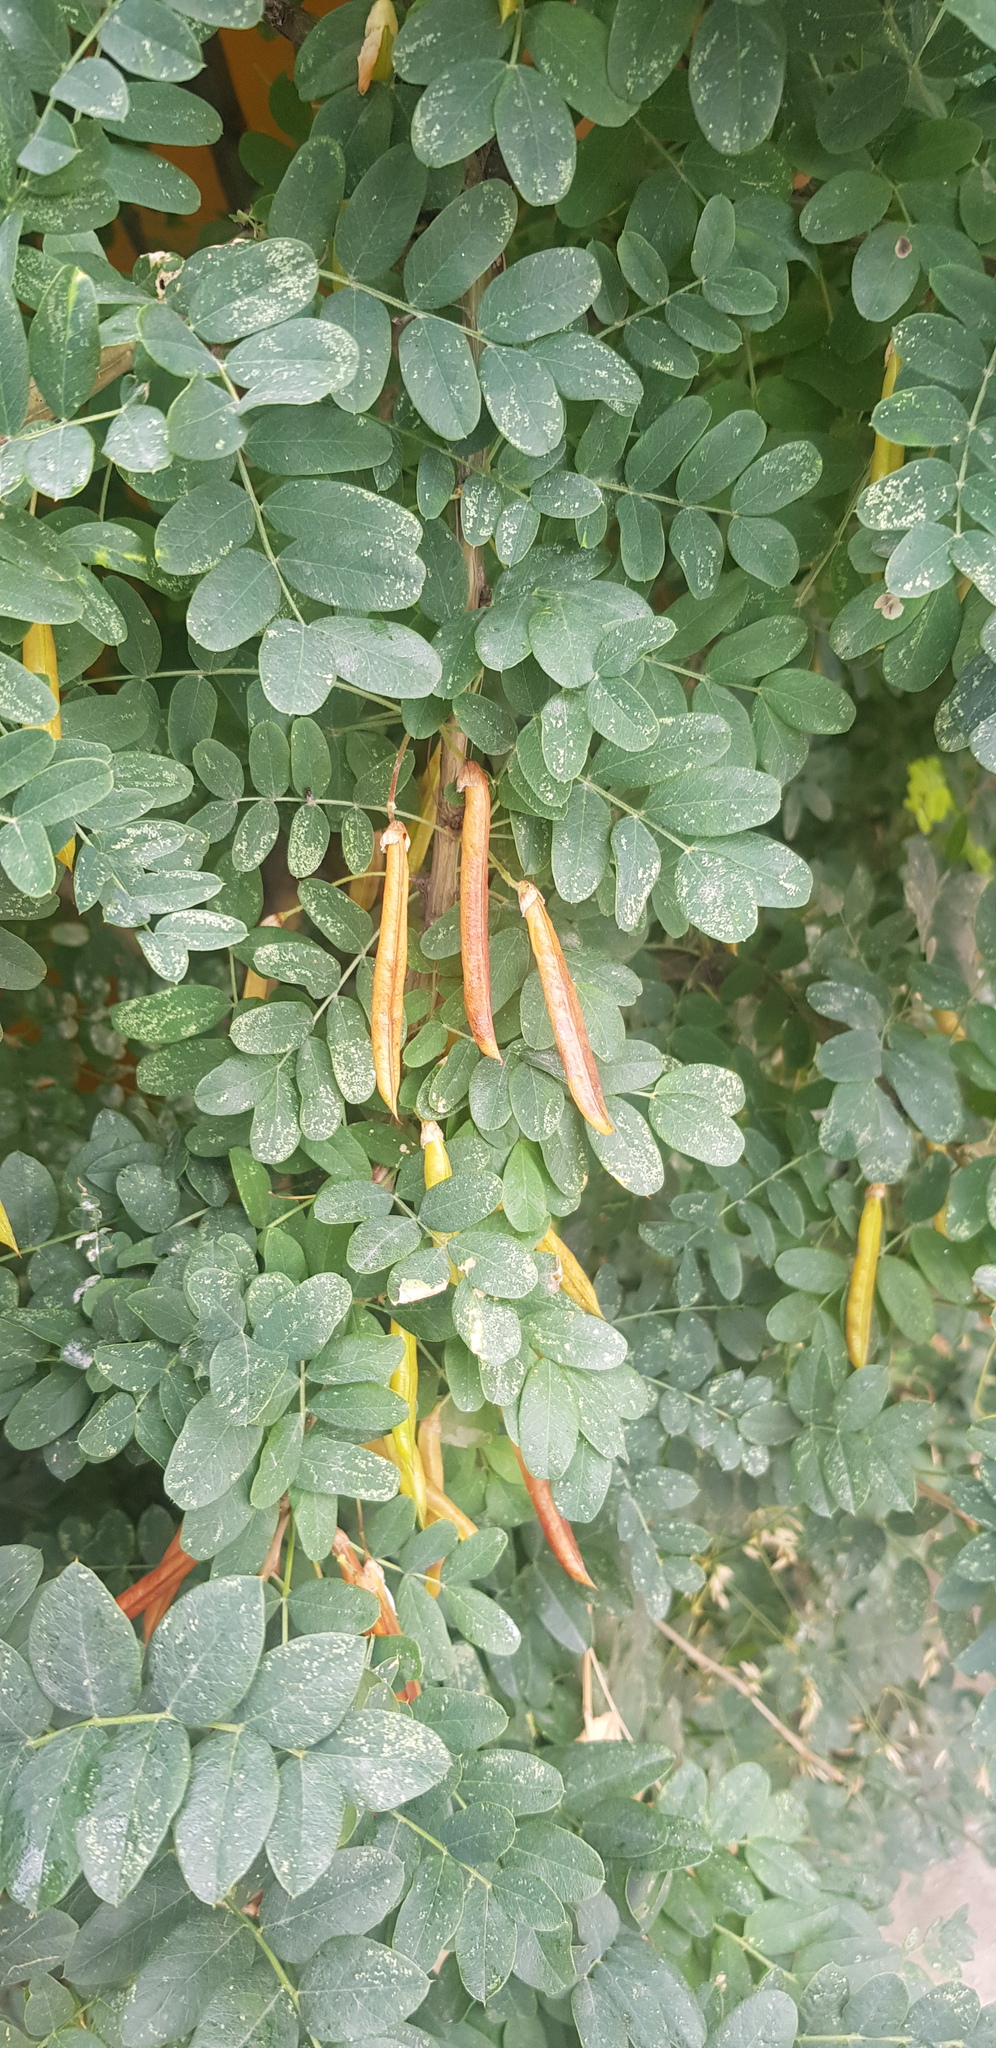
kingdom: Plantae
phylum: Tracheophyta
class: Magnoliopsida
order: Fabales
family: Fabaceae
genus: Caragana
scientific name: Caragana arborescens
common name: Siberian peashrub
